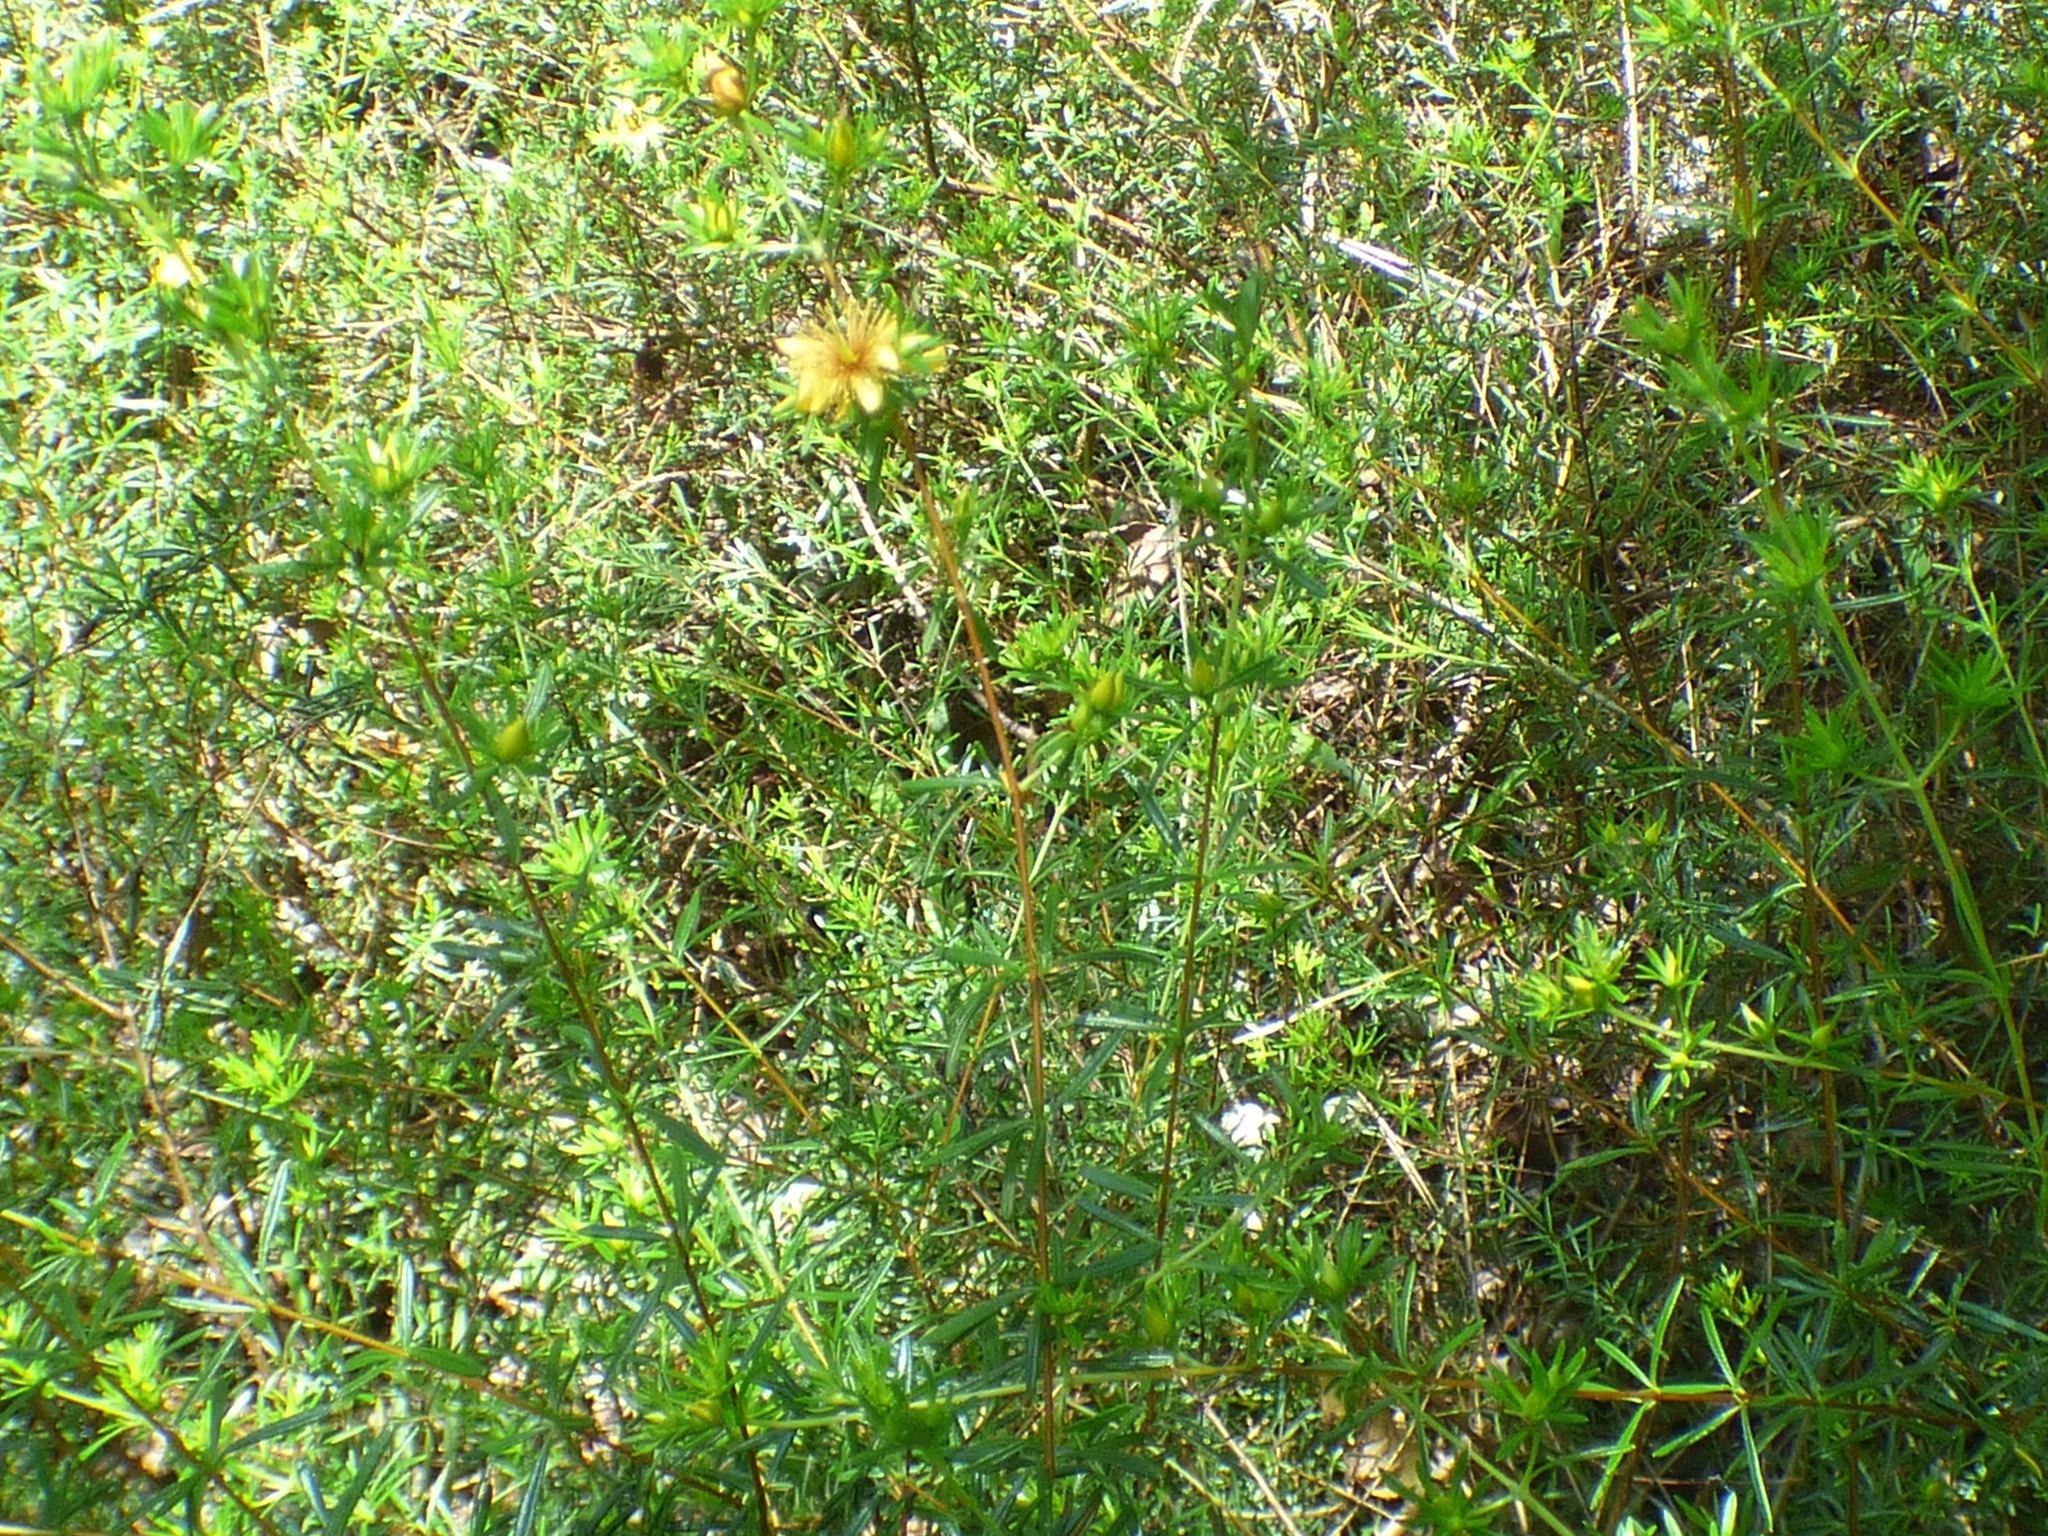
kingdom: Plantae
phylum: Tracheophyta
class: Magnoliopsida
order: Malpighiales
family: Hypericaceae
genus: Hypericum
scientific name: Hypericum galioides
